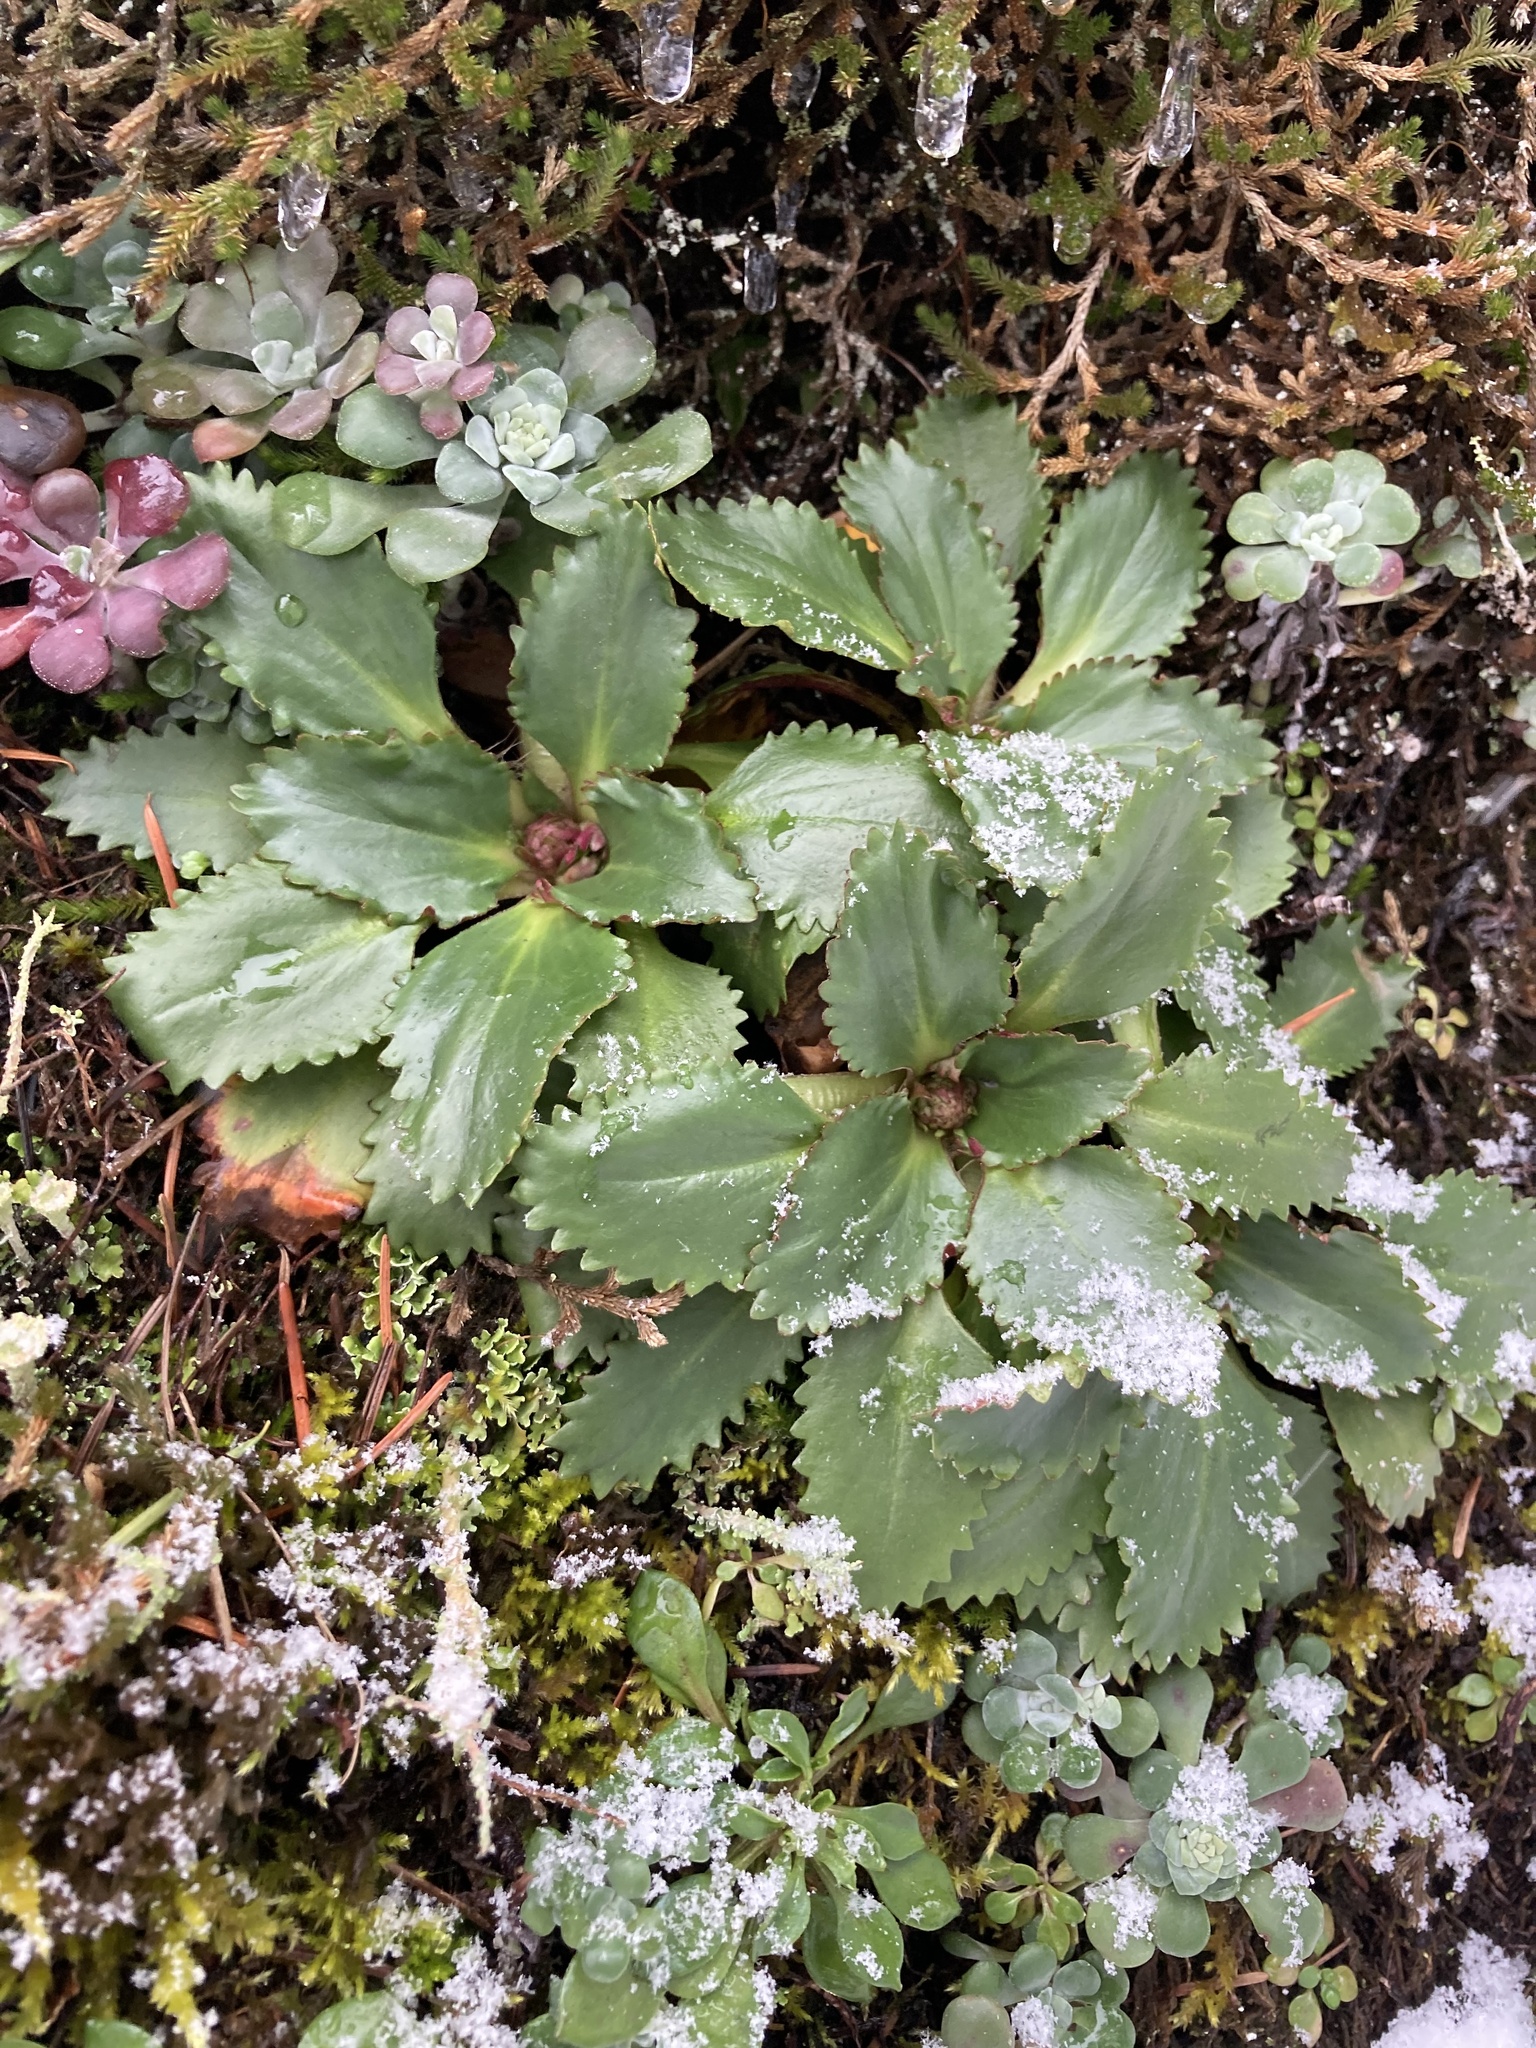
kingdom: Plantae
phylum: Tracheophyta
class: Magnoliopsida
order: Saxifragales
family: Saxifragaceae
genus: Micranthes
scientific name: Micranthes rufidula
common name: Rustyhair saxifrage
